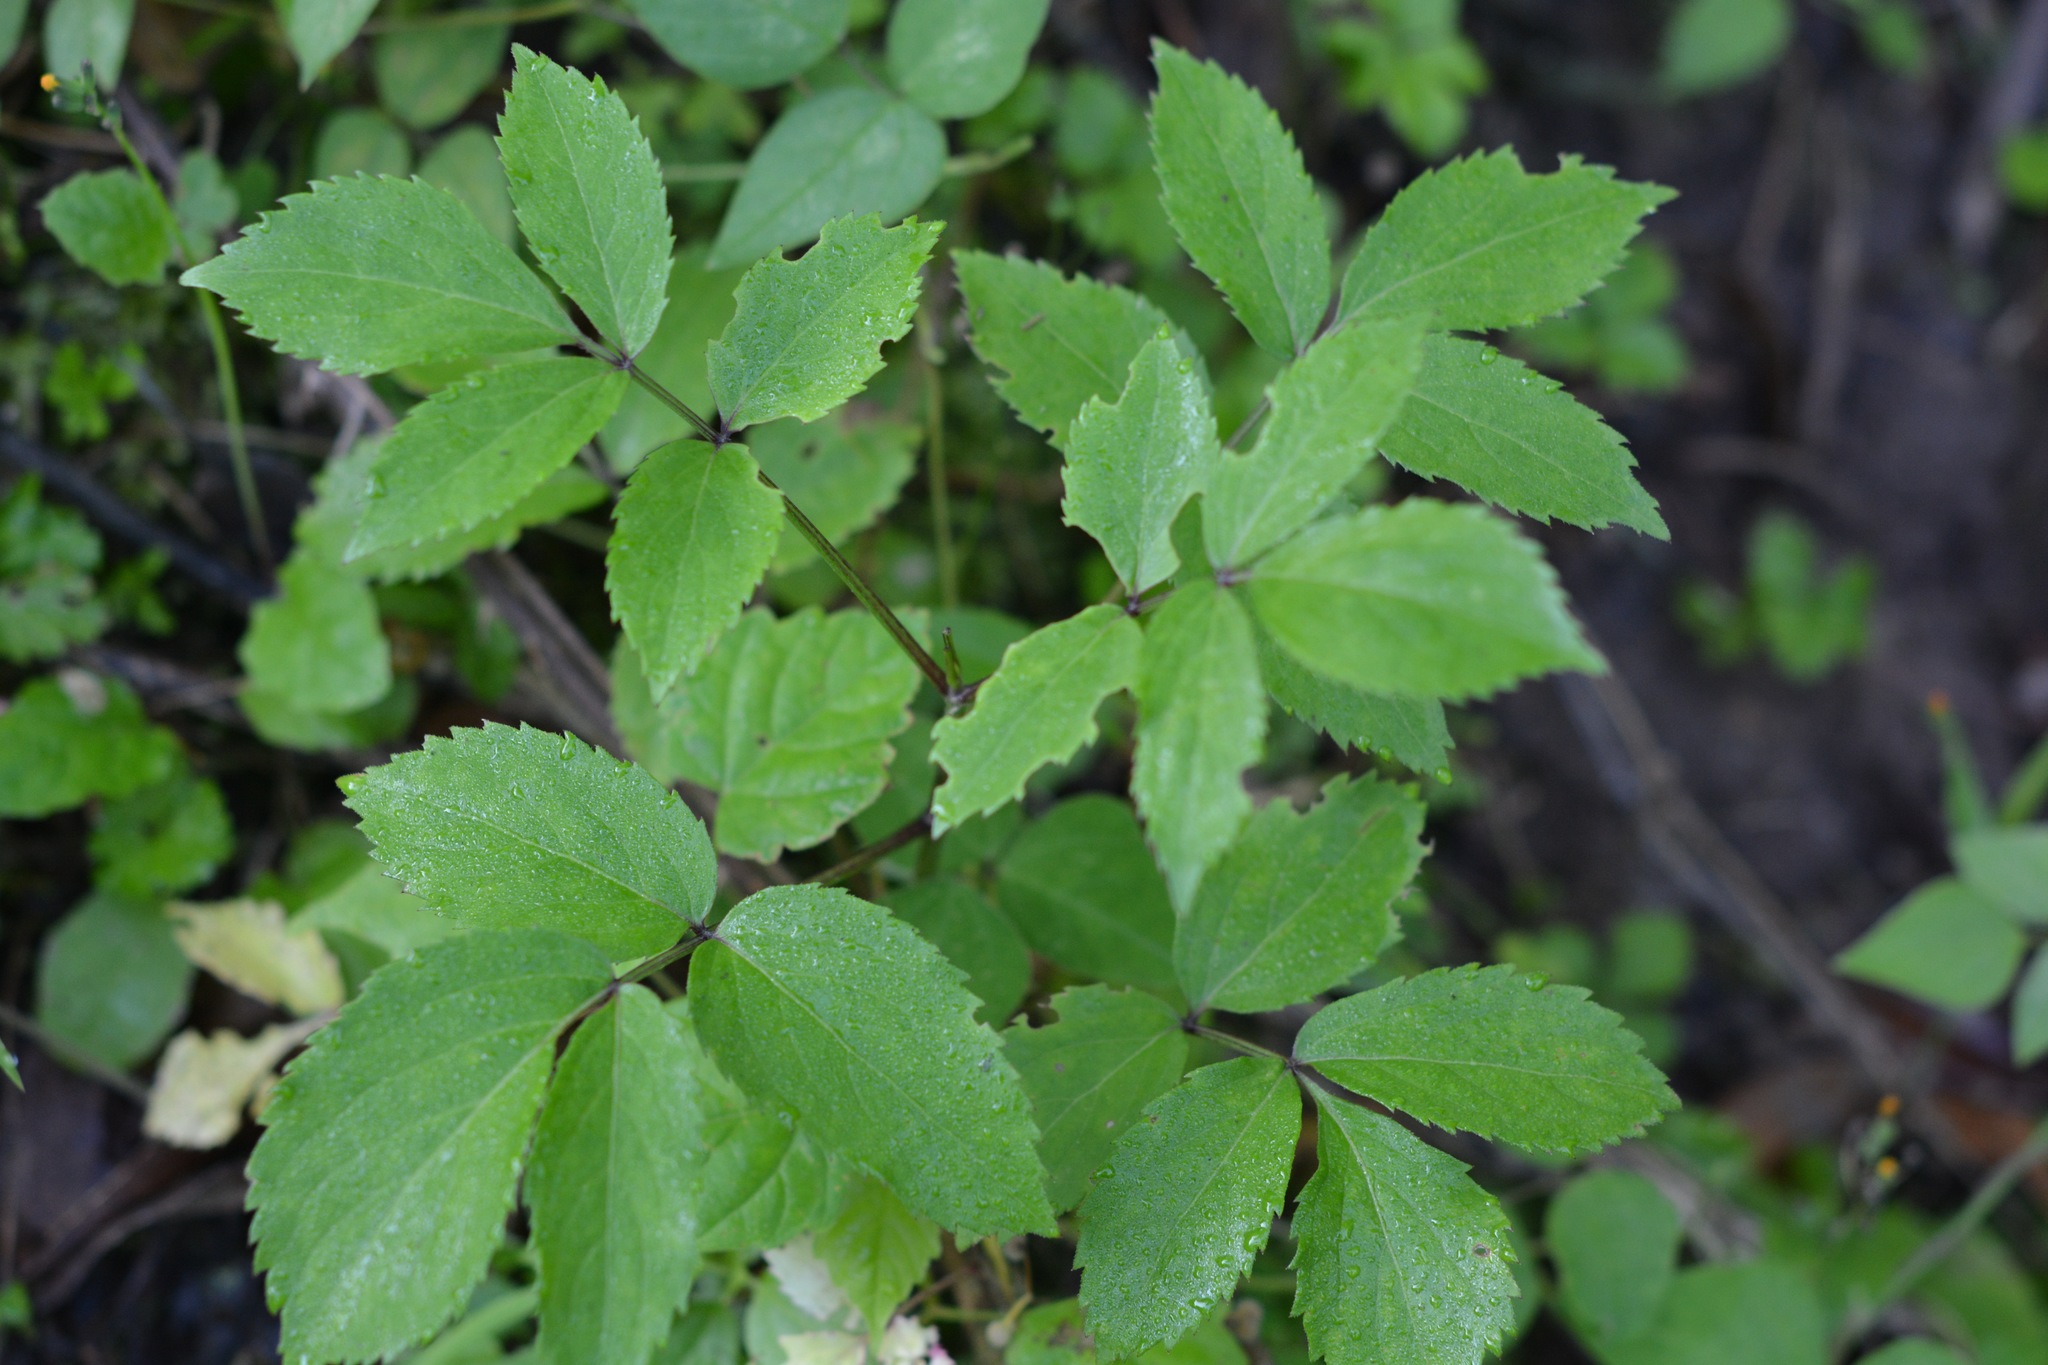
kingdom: Plantae
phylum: Tracheophyta
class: Magnoliopsida
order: Dipsacales
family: Viburnaceae
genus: Sambucus
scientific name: Sambucus canadensis
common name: American elder
